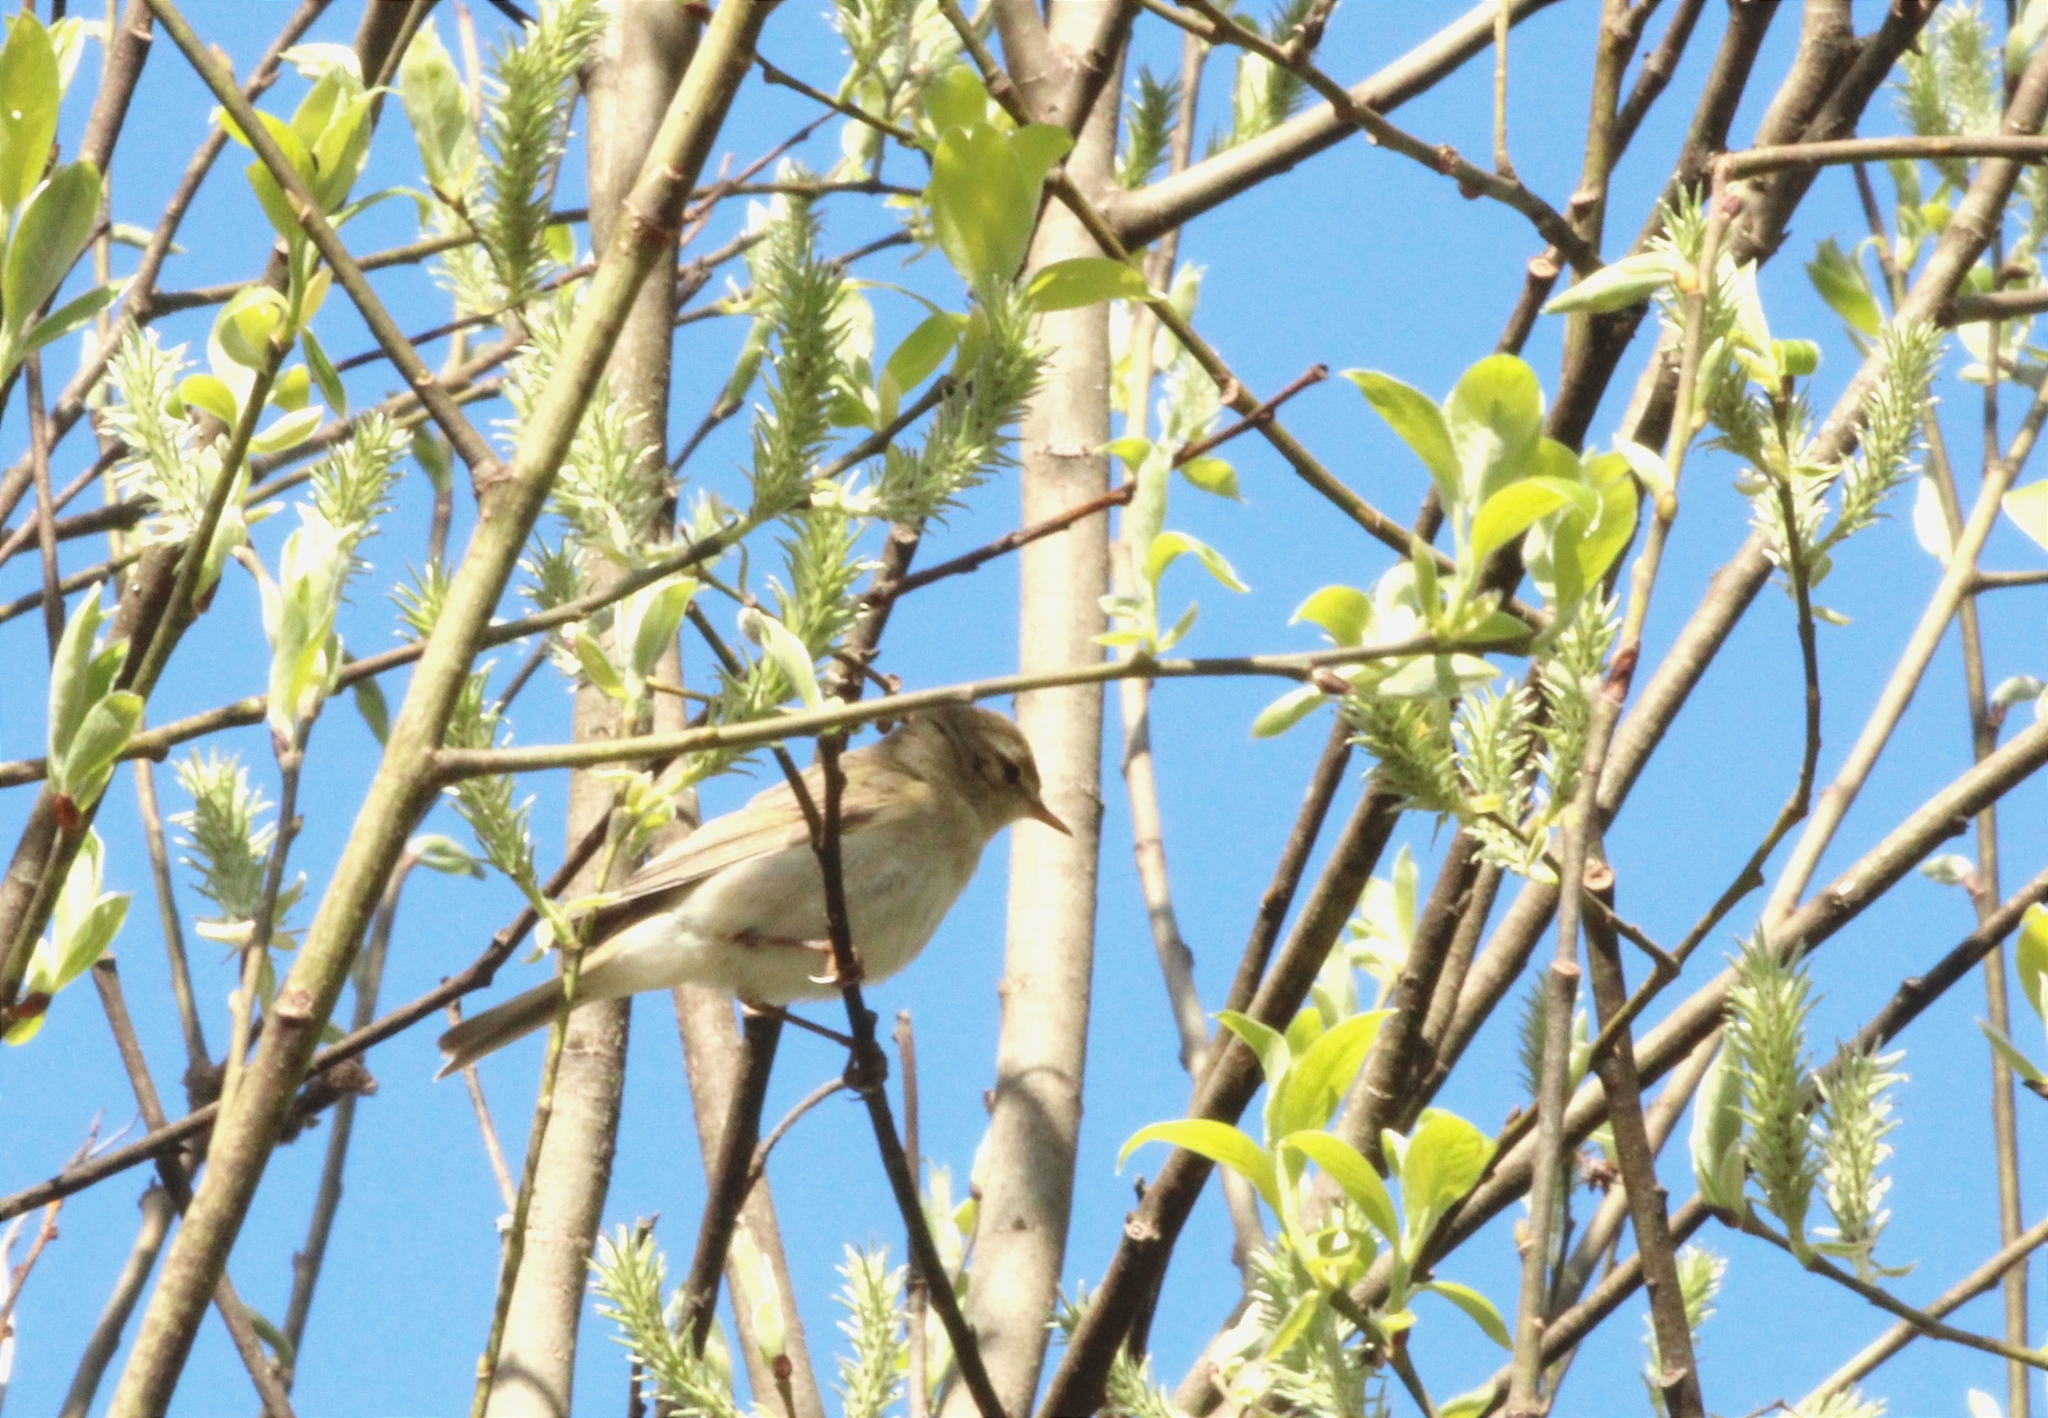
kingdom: Animalia
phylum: Chordata
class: Aves
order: Passeriformes
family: Phylloscopidae
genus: Phylloscopus
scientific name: Phylloscopus trochilus
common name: Willow warbler
